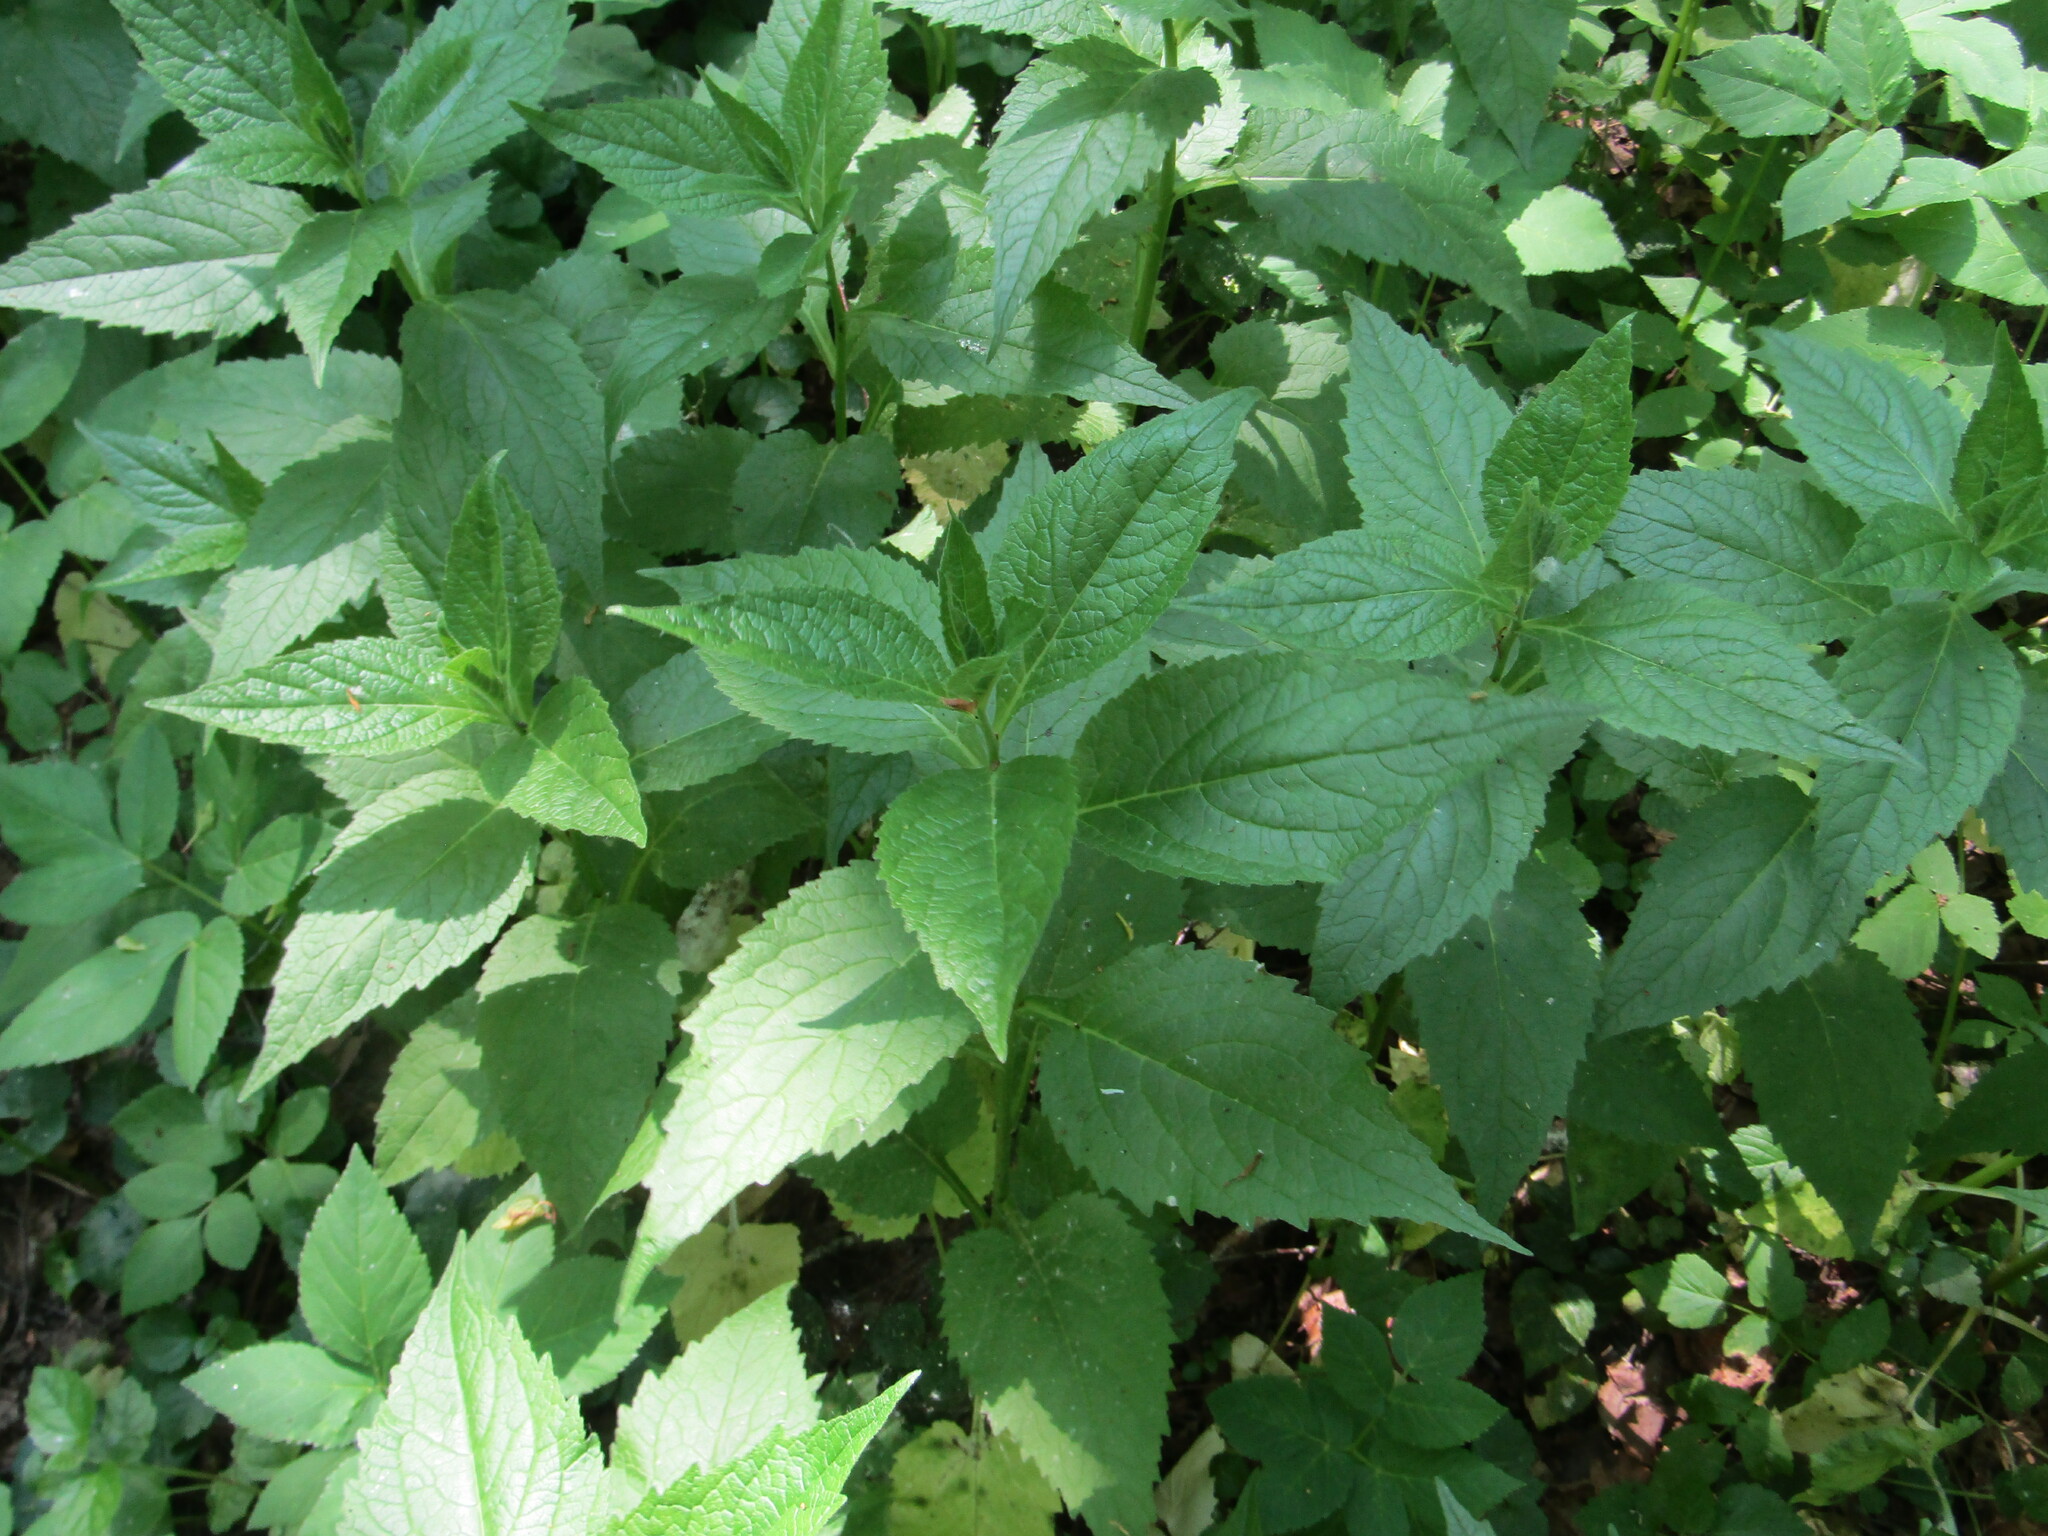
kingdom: Plantae
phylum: Tracheophyta
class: Magnoliopsida
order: Asterales
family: Campanulaceae
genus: Campanula
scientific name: Campanula latifolia
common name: Giant bellflower
